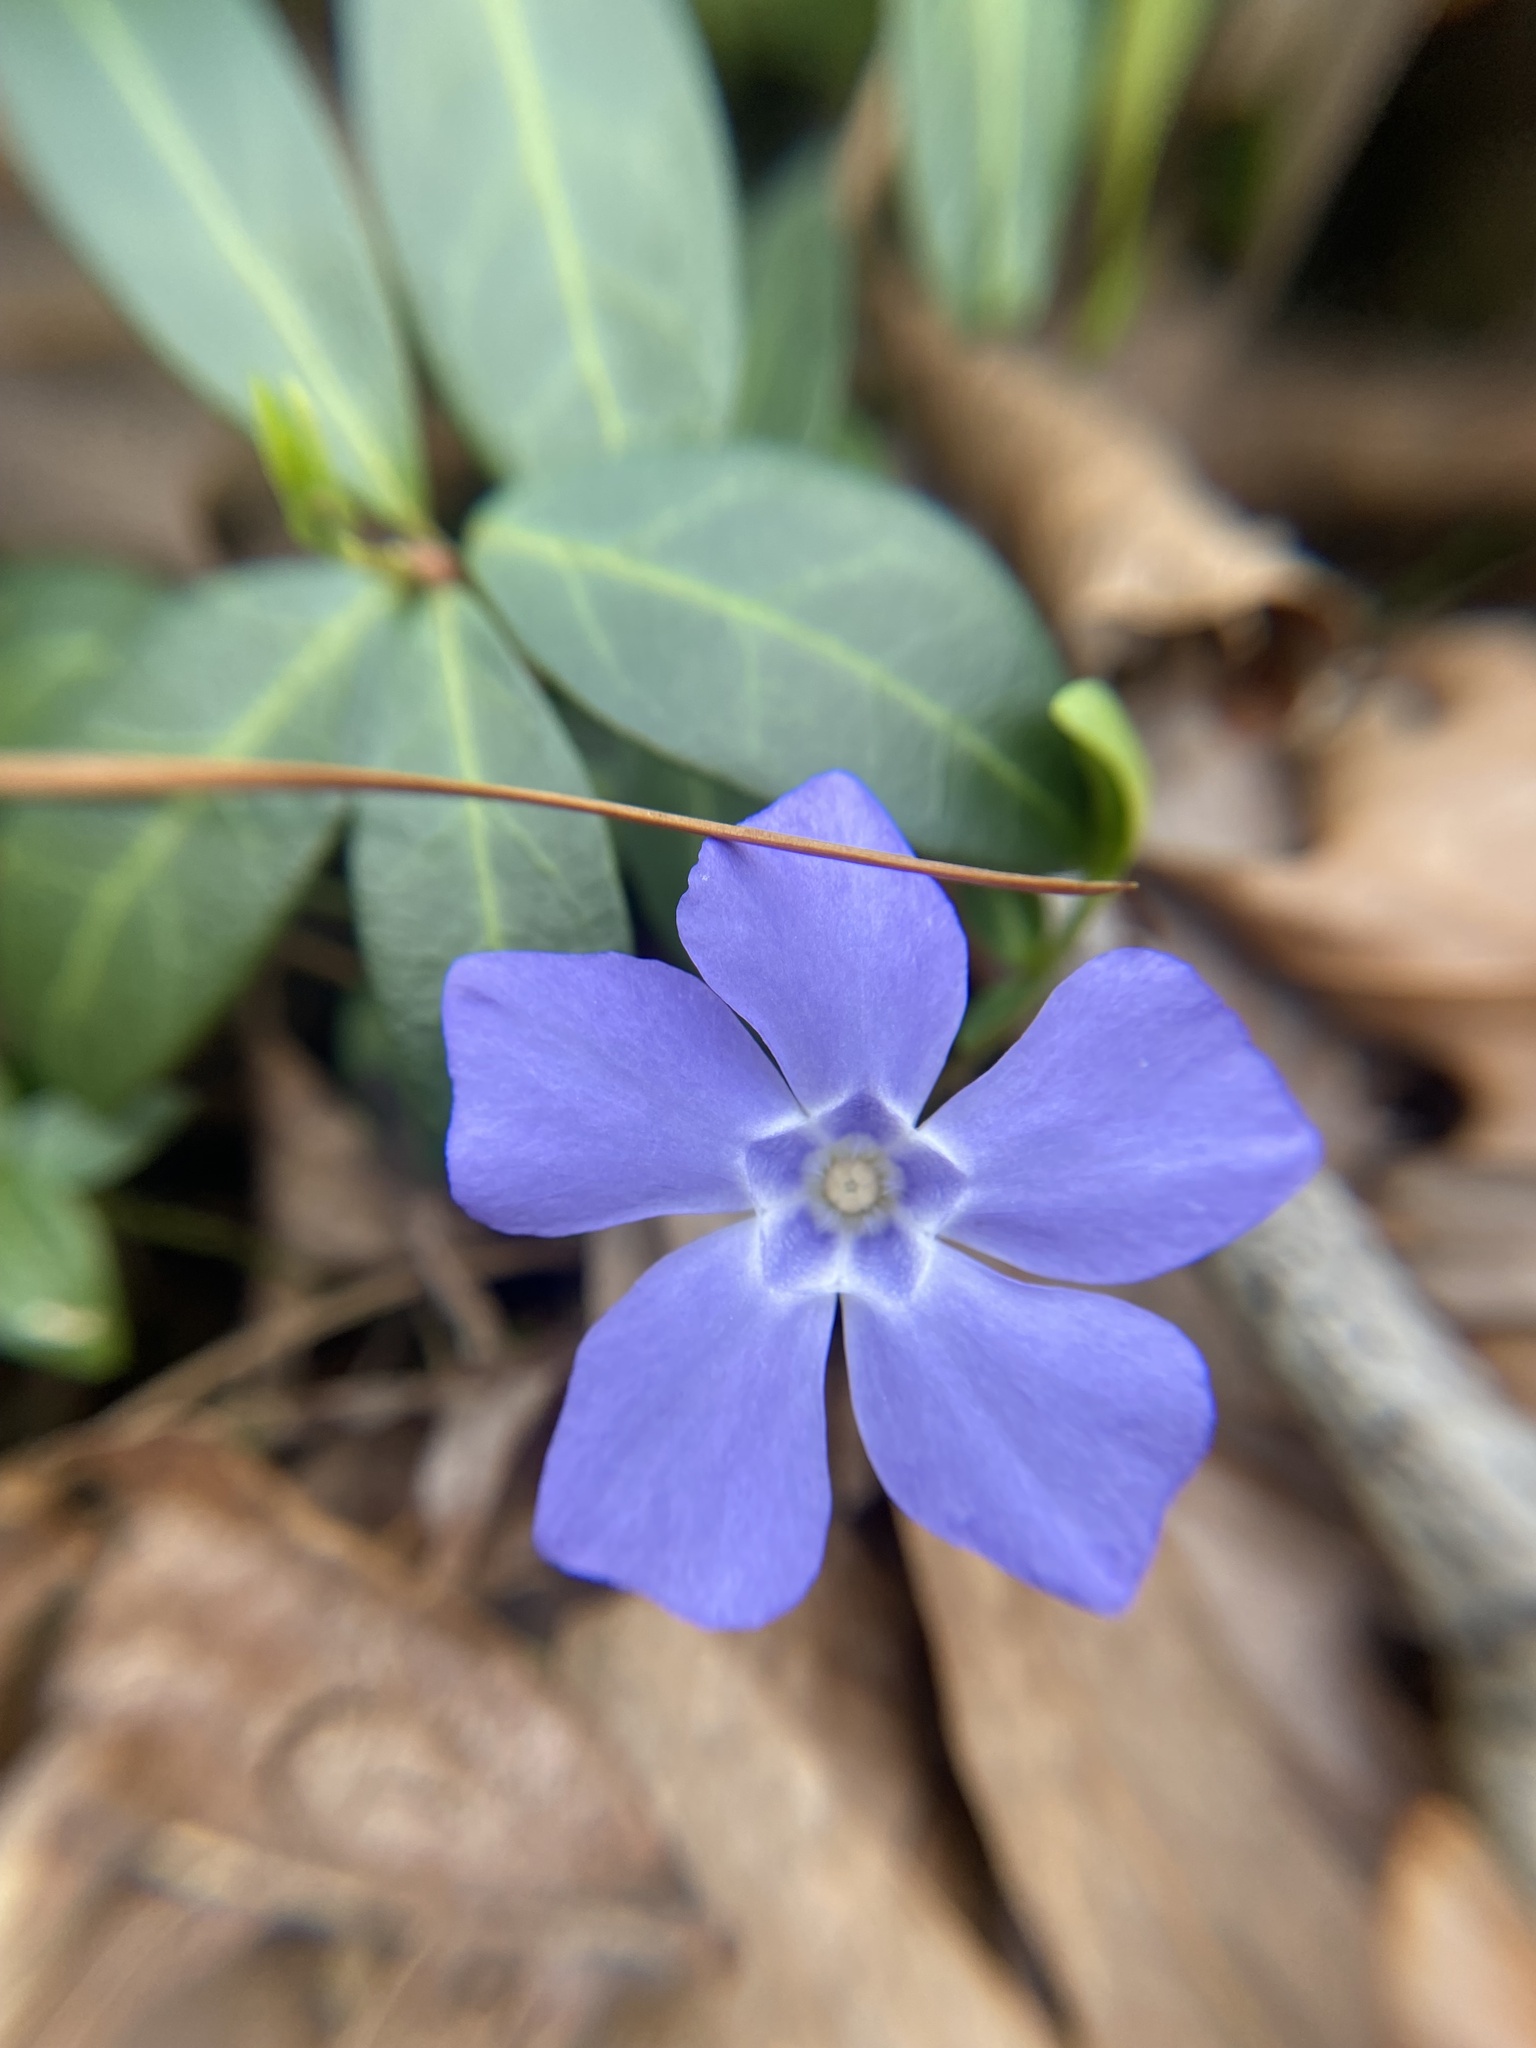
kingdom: Plantae
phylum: Tracheophyta
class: Magnoliopsida
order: Gentianales
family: Apocynaceae
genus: Vinca
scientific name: Vinca minor
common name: Lesser periwinkle
